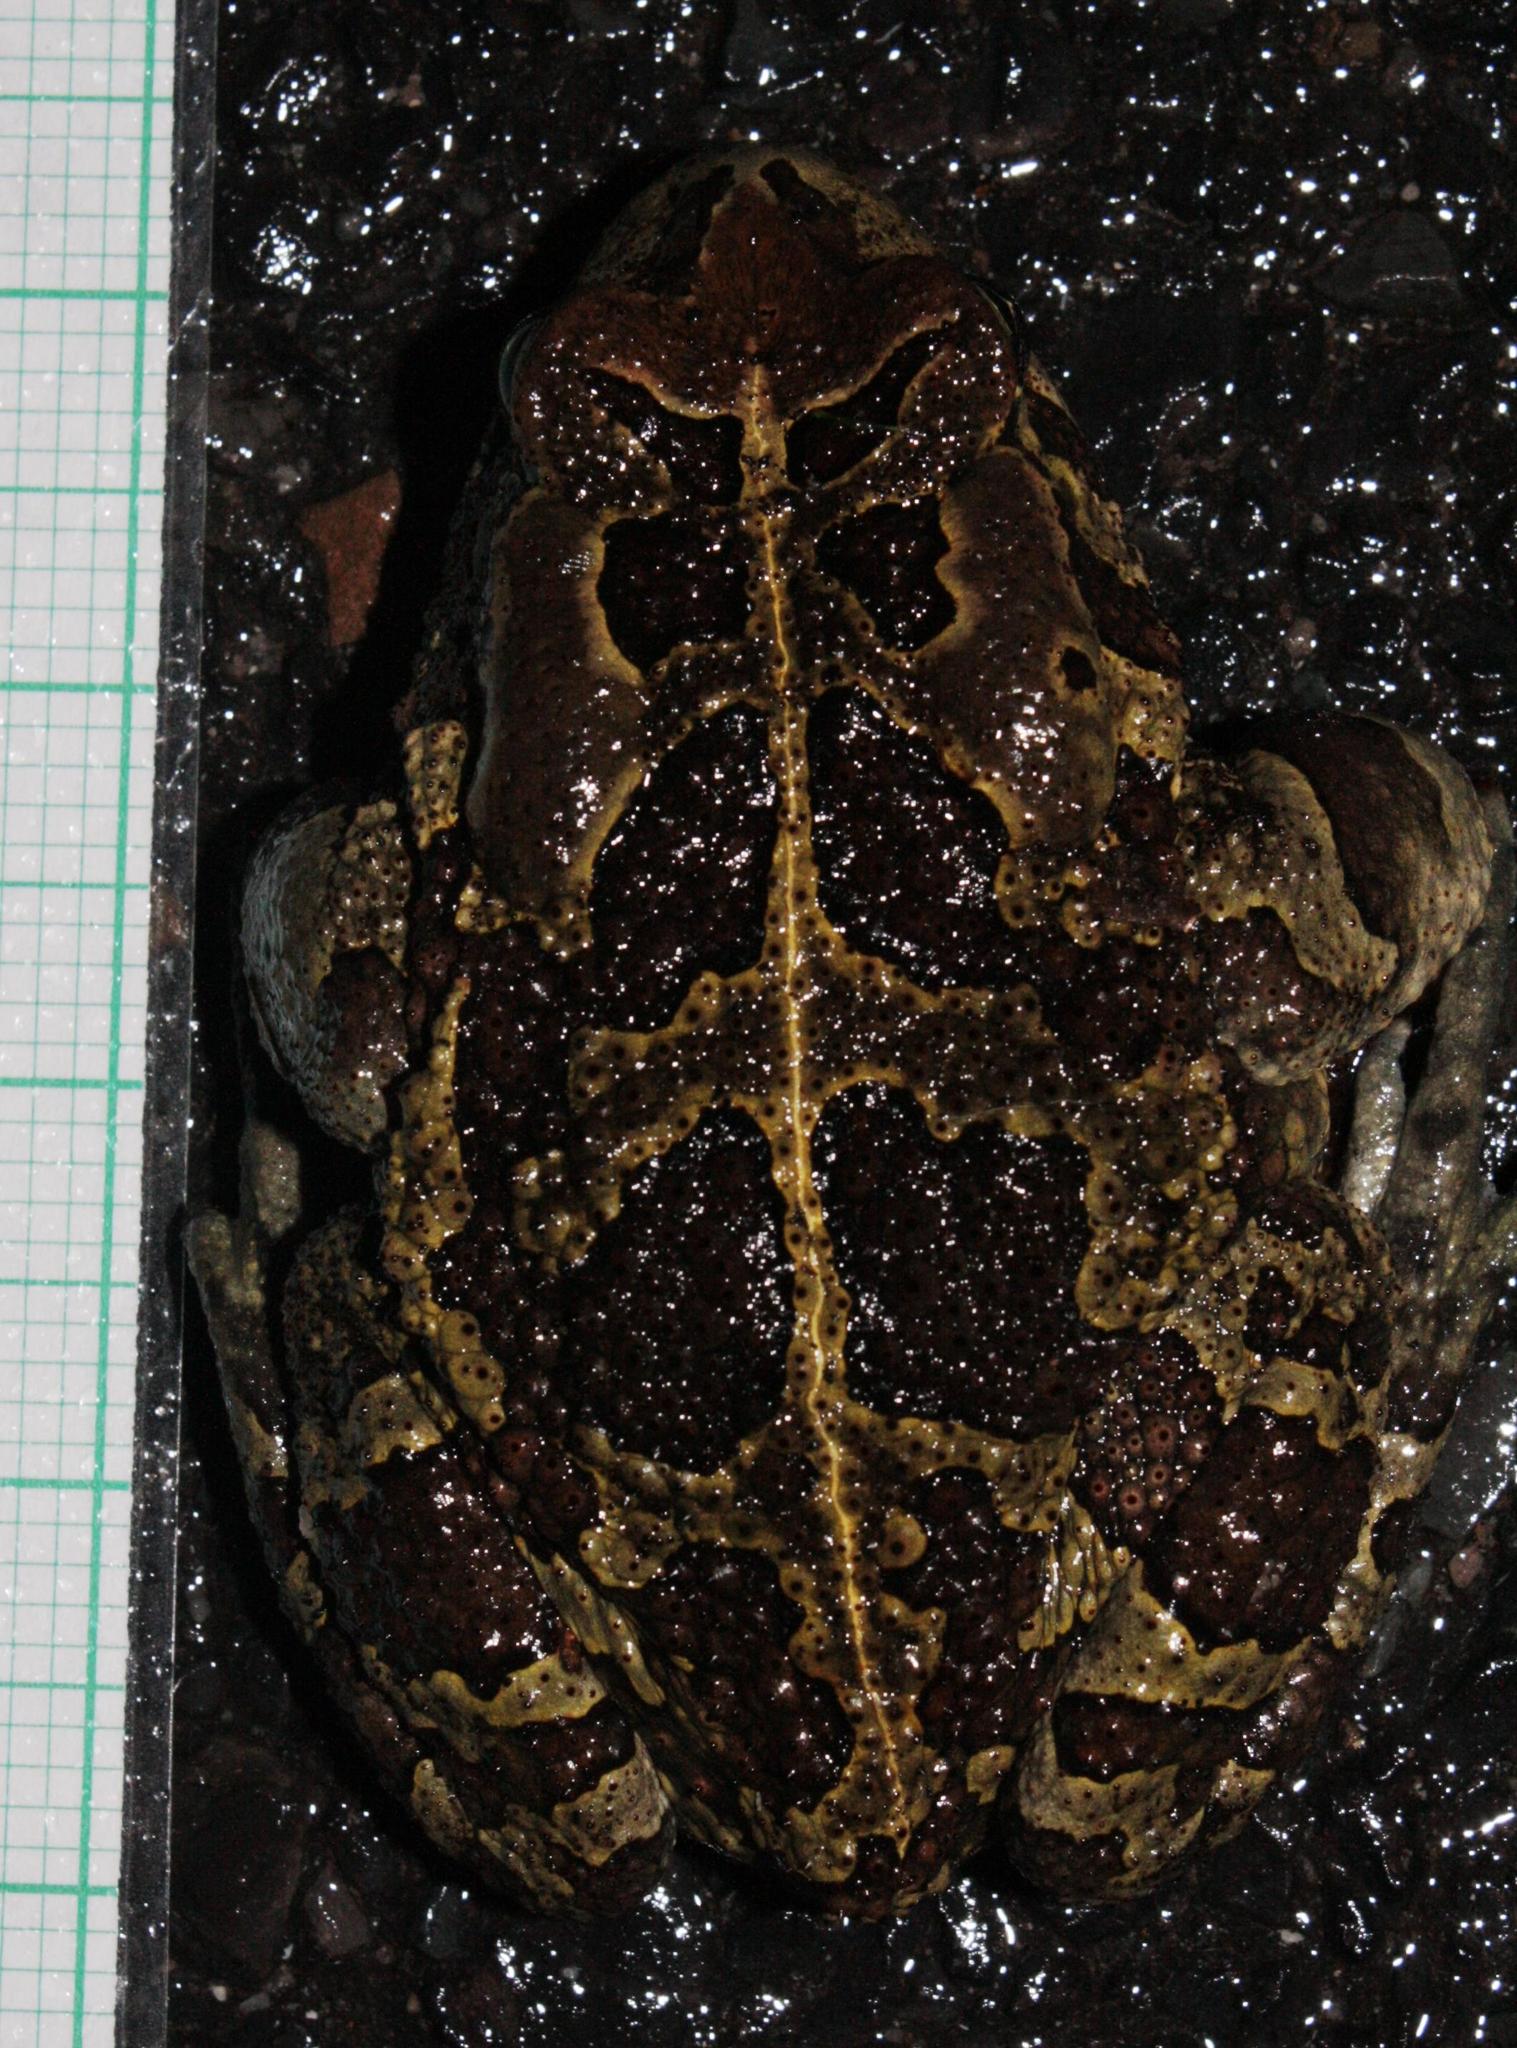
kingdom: Animalia
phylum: Chordata
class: Amphibia
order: Anura
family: Bufonidae
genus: Sclerophrys
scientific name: Sclerophrys pantherina
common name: Panther toad
